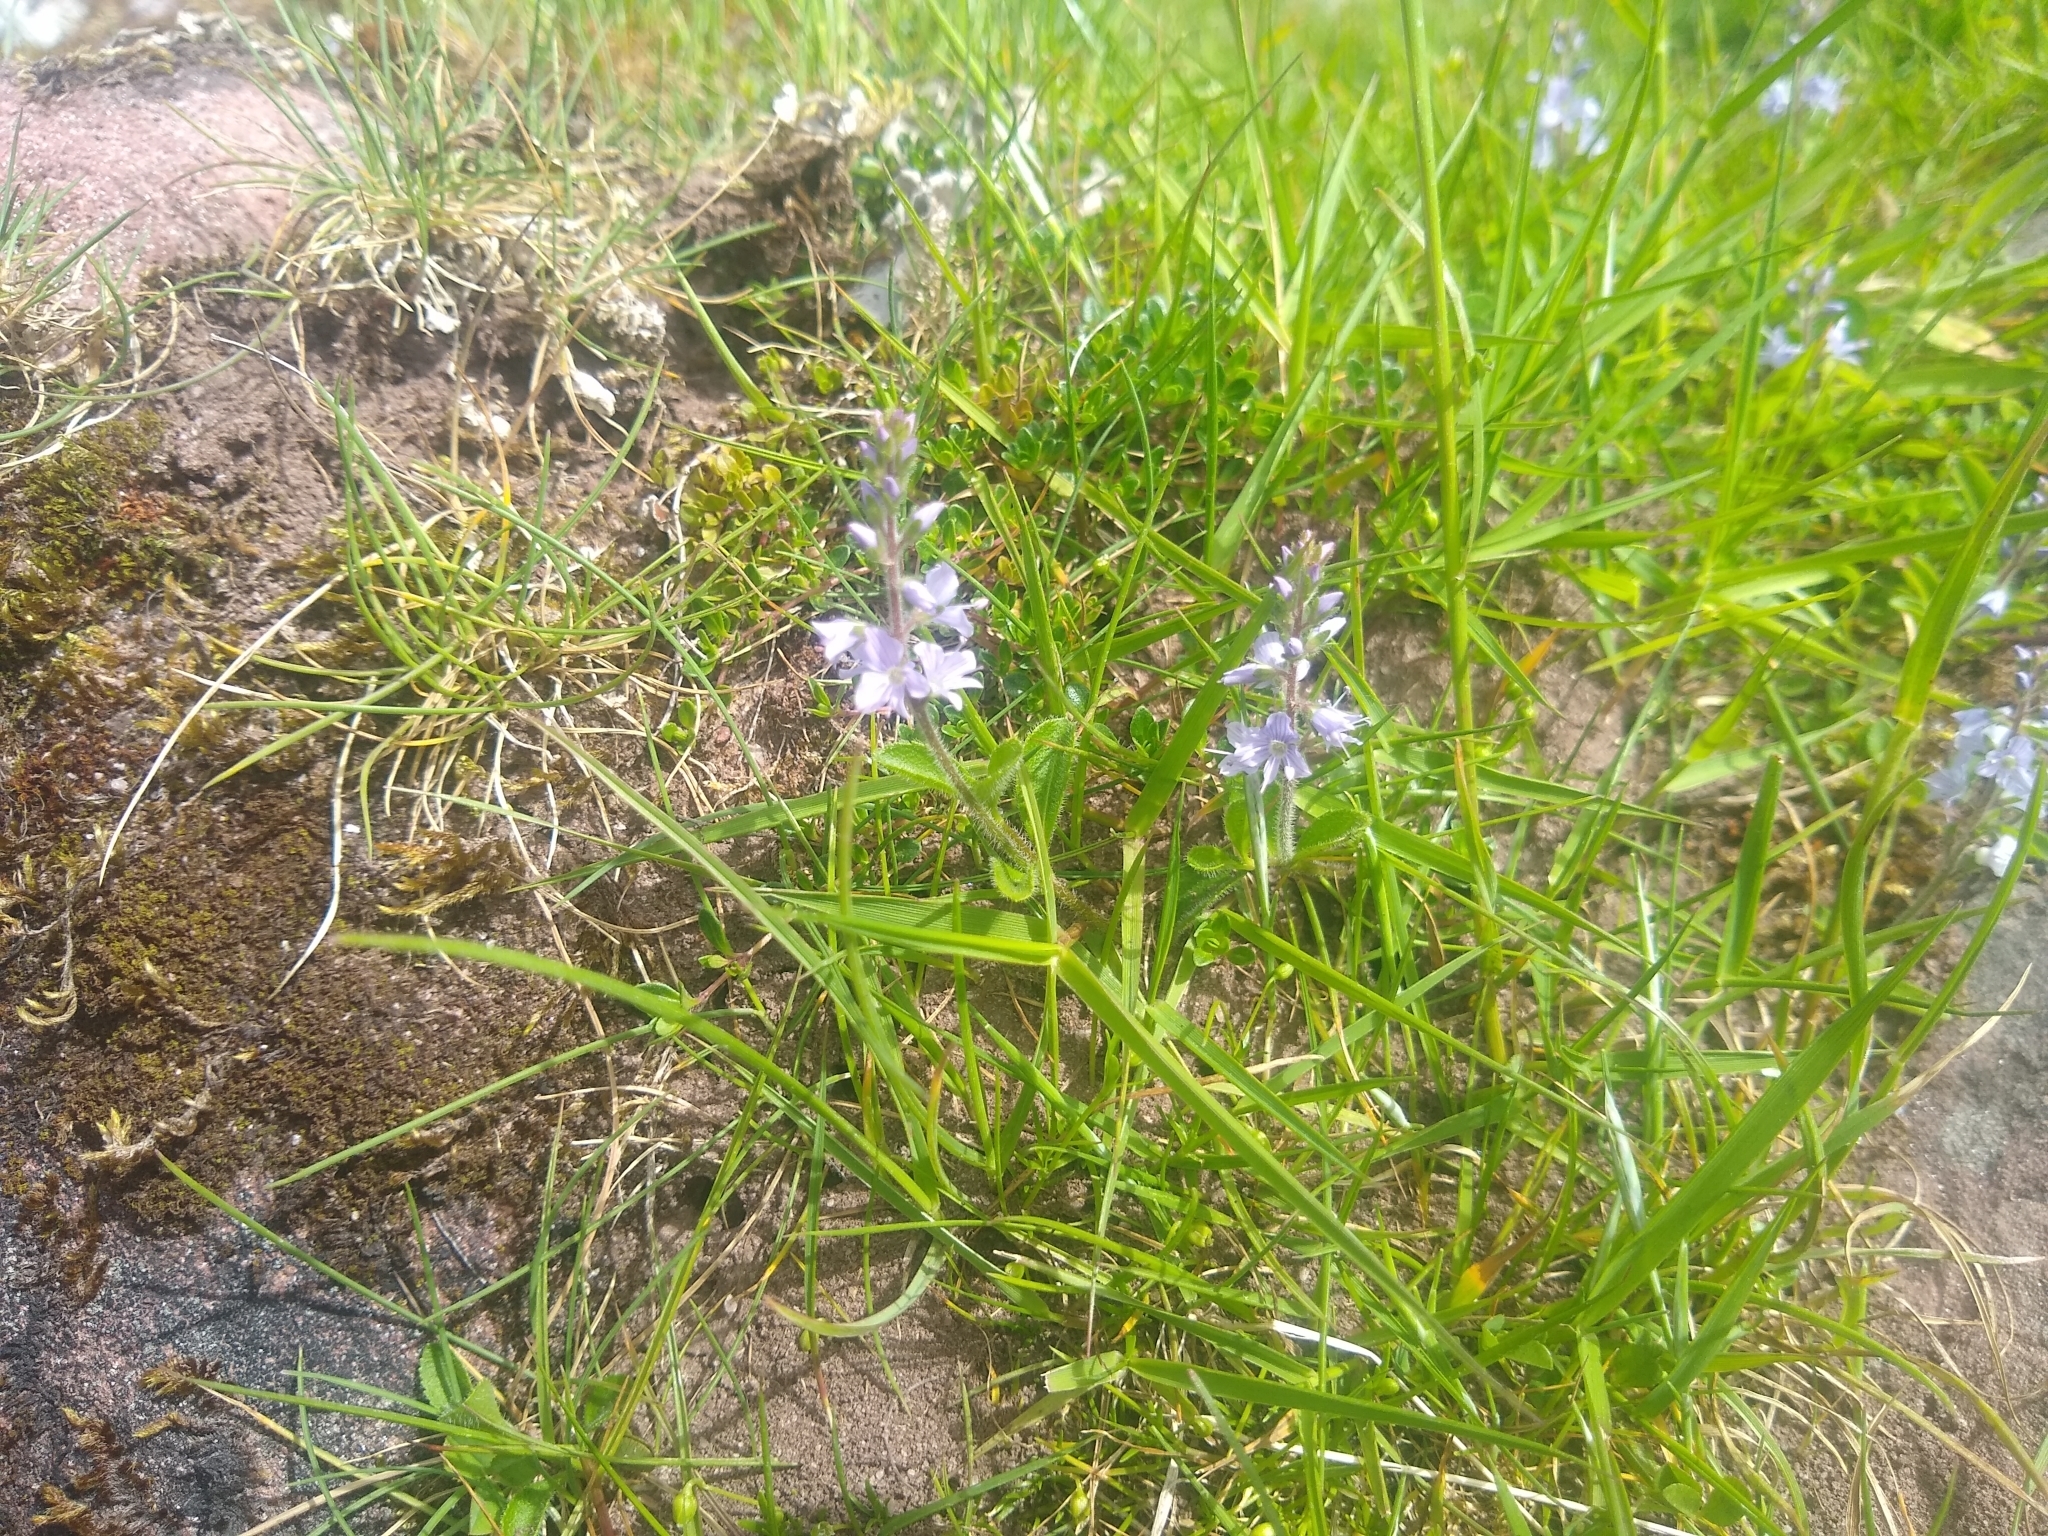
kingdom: Plantae
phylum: Tracheophyta
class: Magnoliopsida
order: Lamiales
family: Plantaginaceae
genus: Veronica
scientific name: Veronica officinalis
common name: Common speedwell
